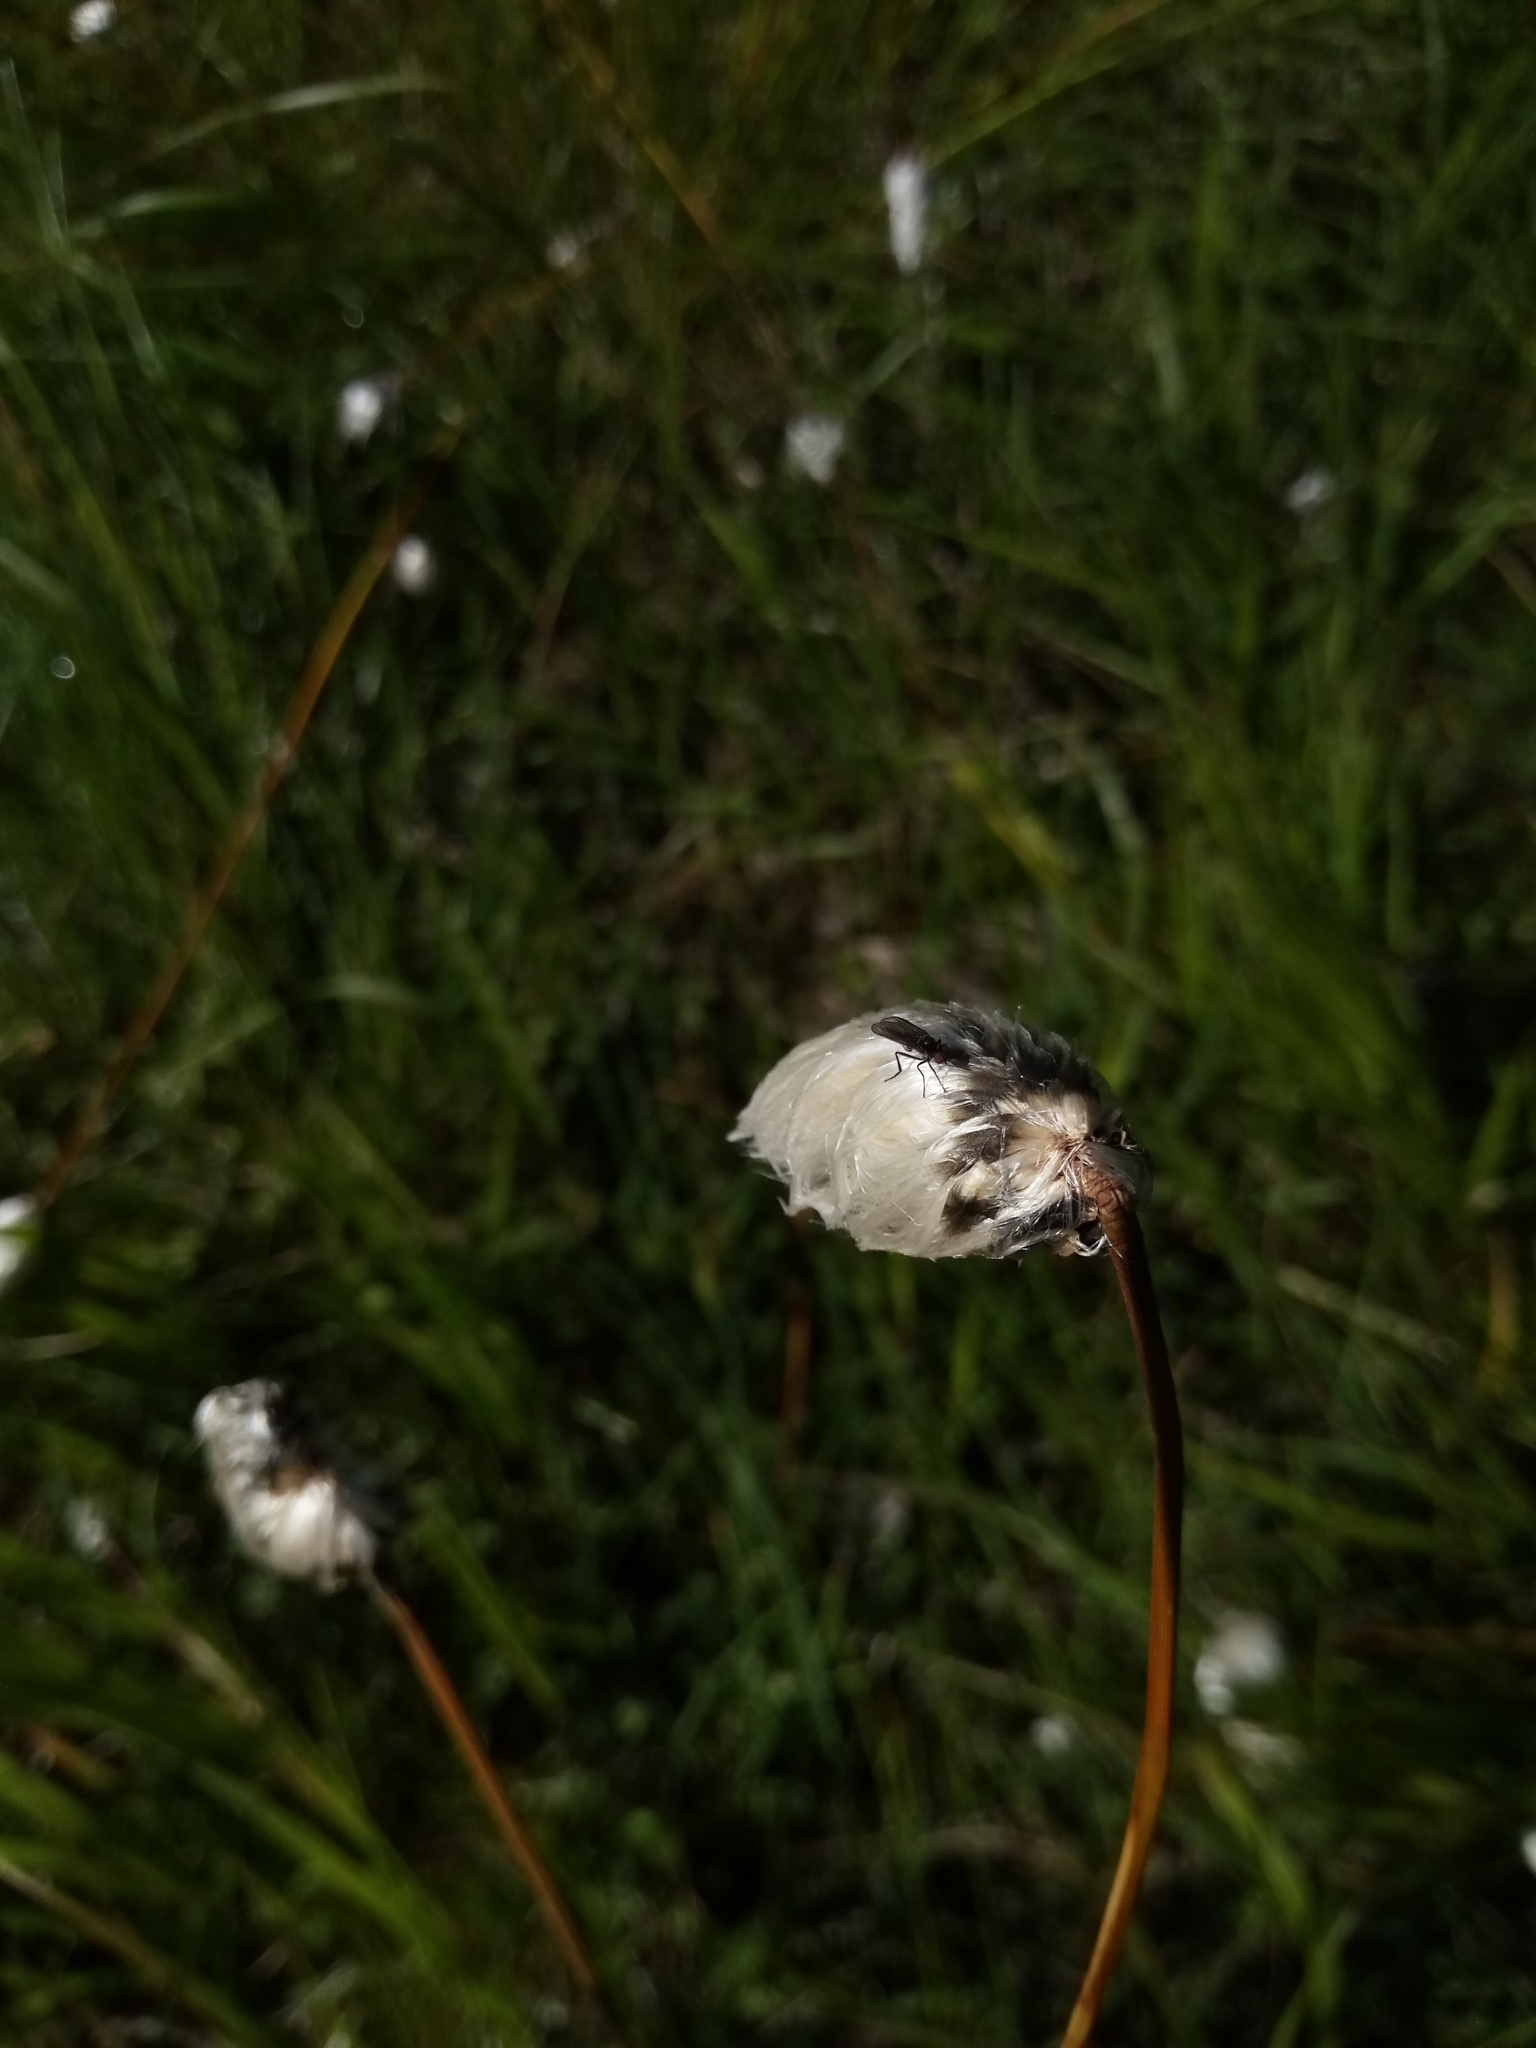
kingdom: Plantae
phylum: Tracheophyta
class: Liliopsida
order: Poales
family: Cyperaceae
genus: Eriophorum
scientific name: Eriophorum vaginatum
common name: Hare's-tail cottongrass
